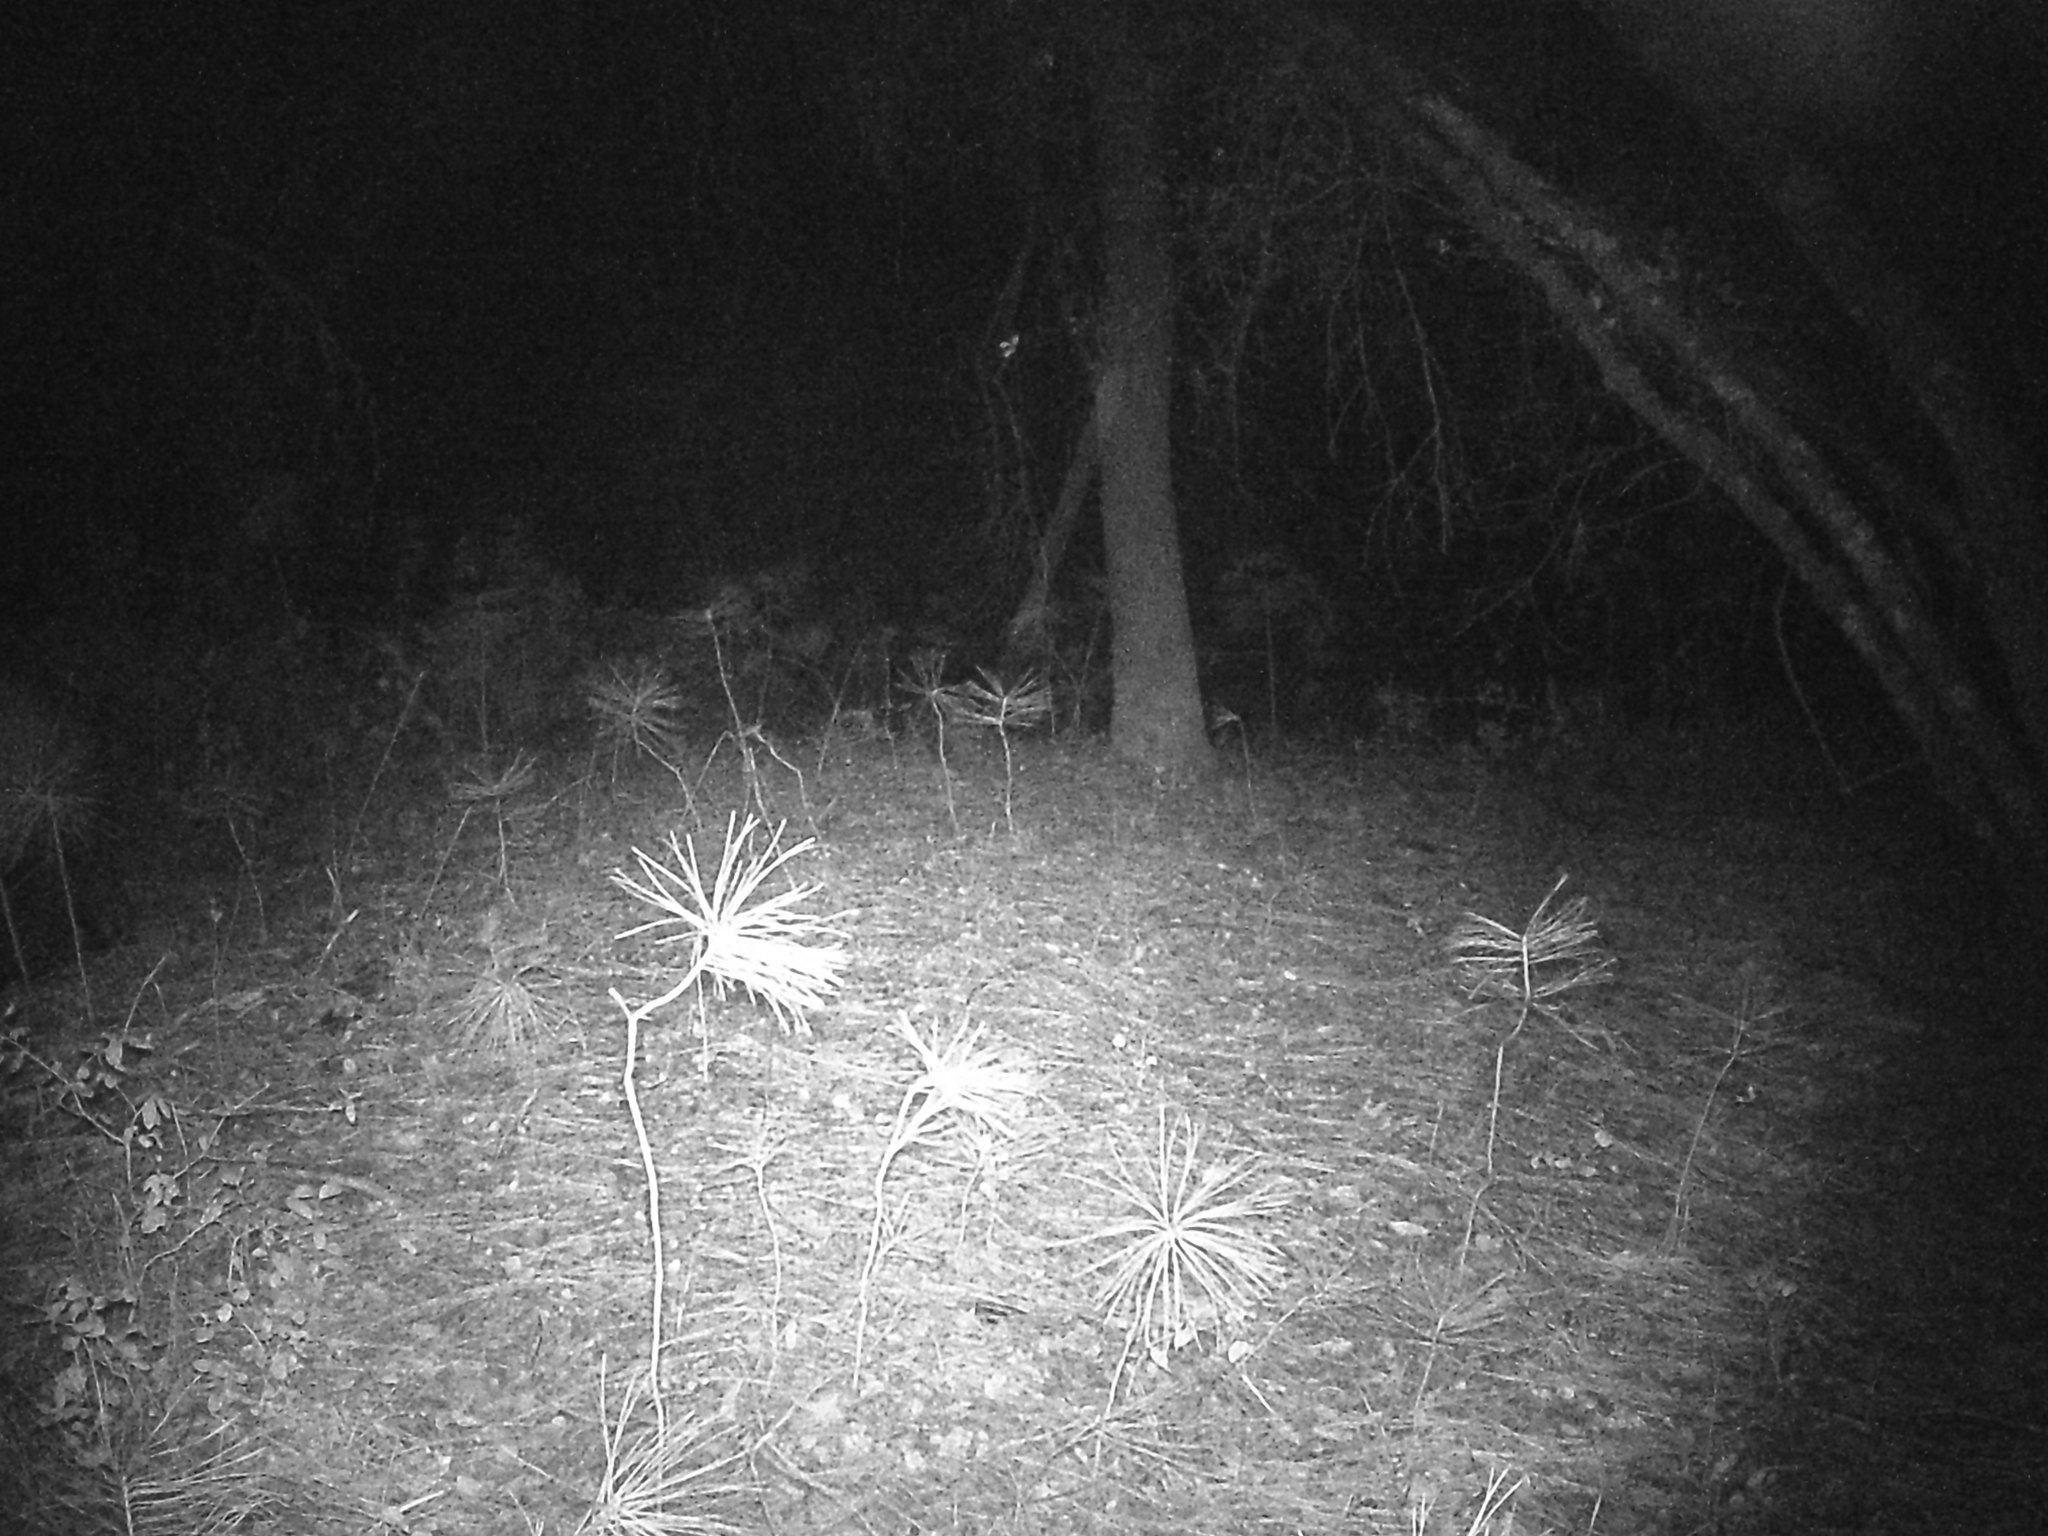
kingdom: Animalia
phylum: Chordata
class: Mammalia
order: Carnivora
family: Ursidae
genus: Ursus
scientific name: Ursus americanus
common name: American black bear
